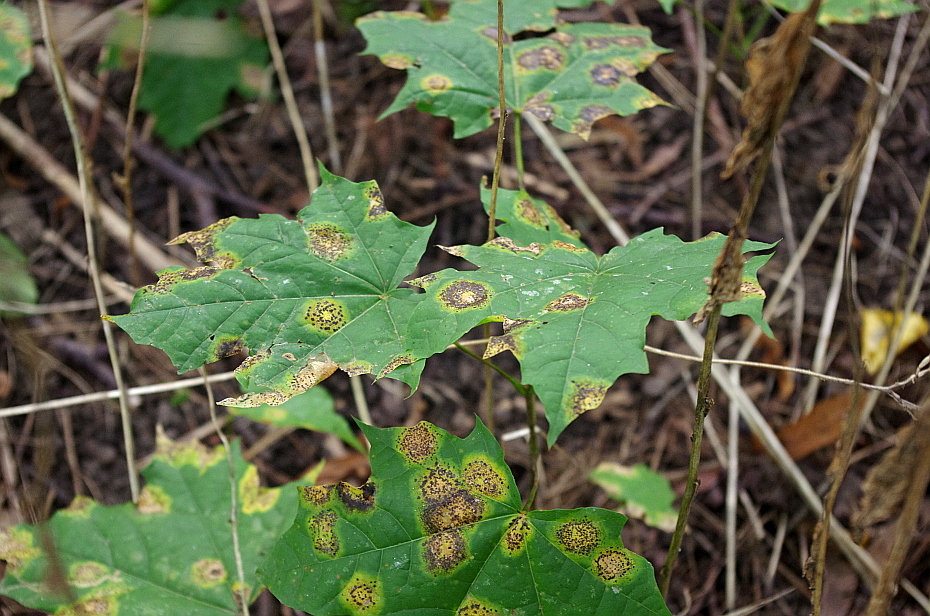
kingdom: Plantae
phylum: Tracheophyta
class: Magnoliopsida
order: Sapindales
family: Sapindaceae
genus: Acer
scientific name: Acer platanoides
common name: Norway maple
